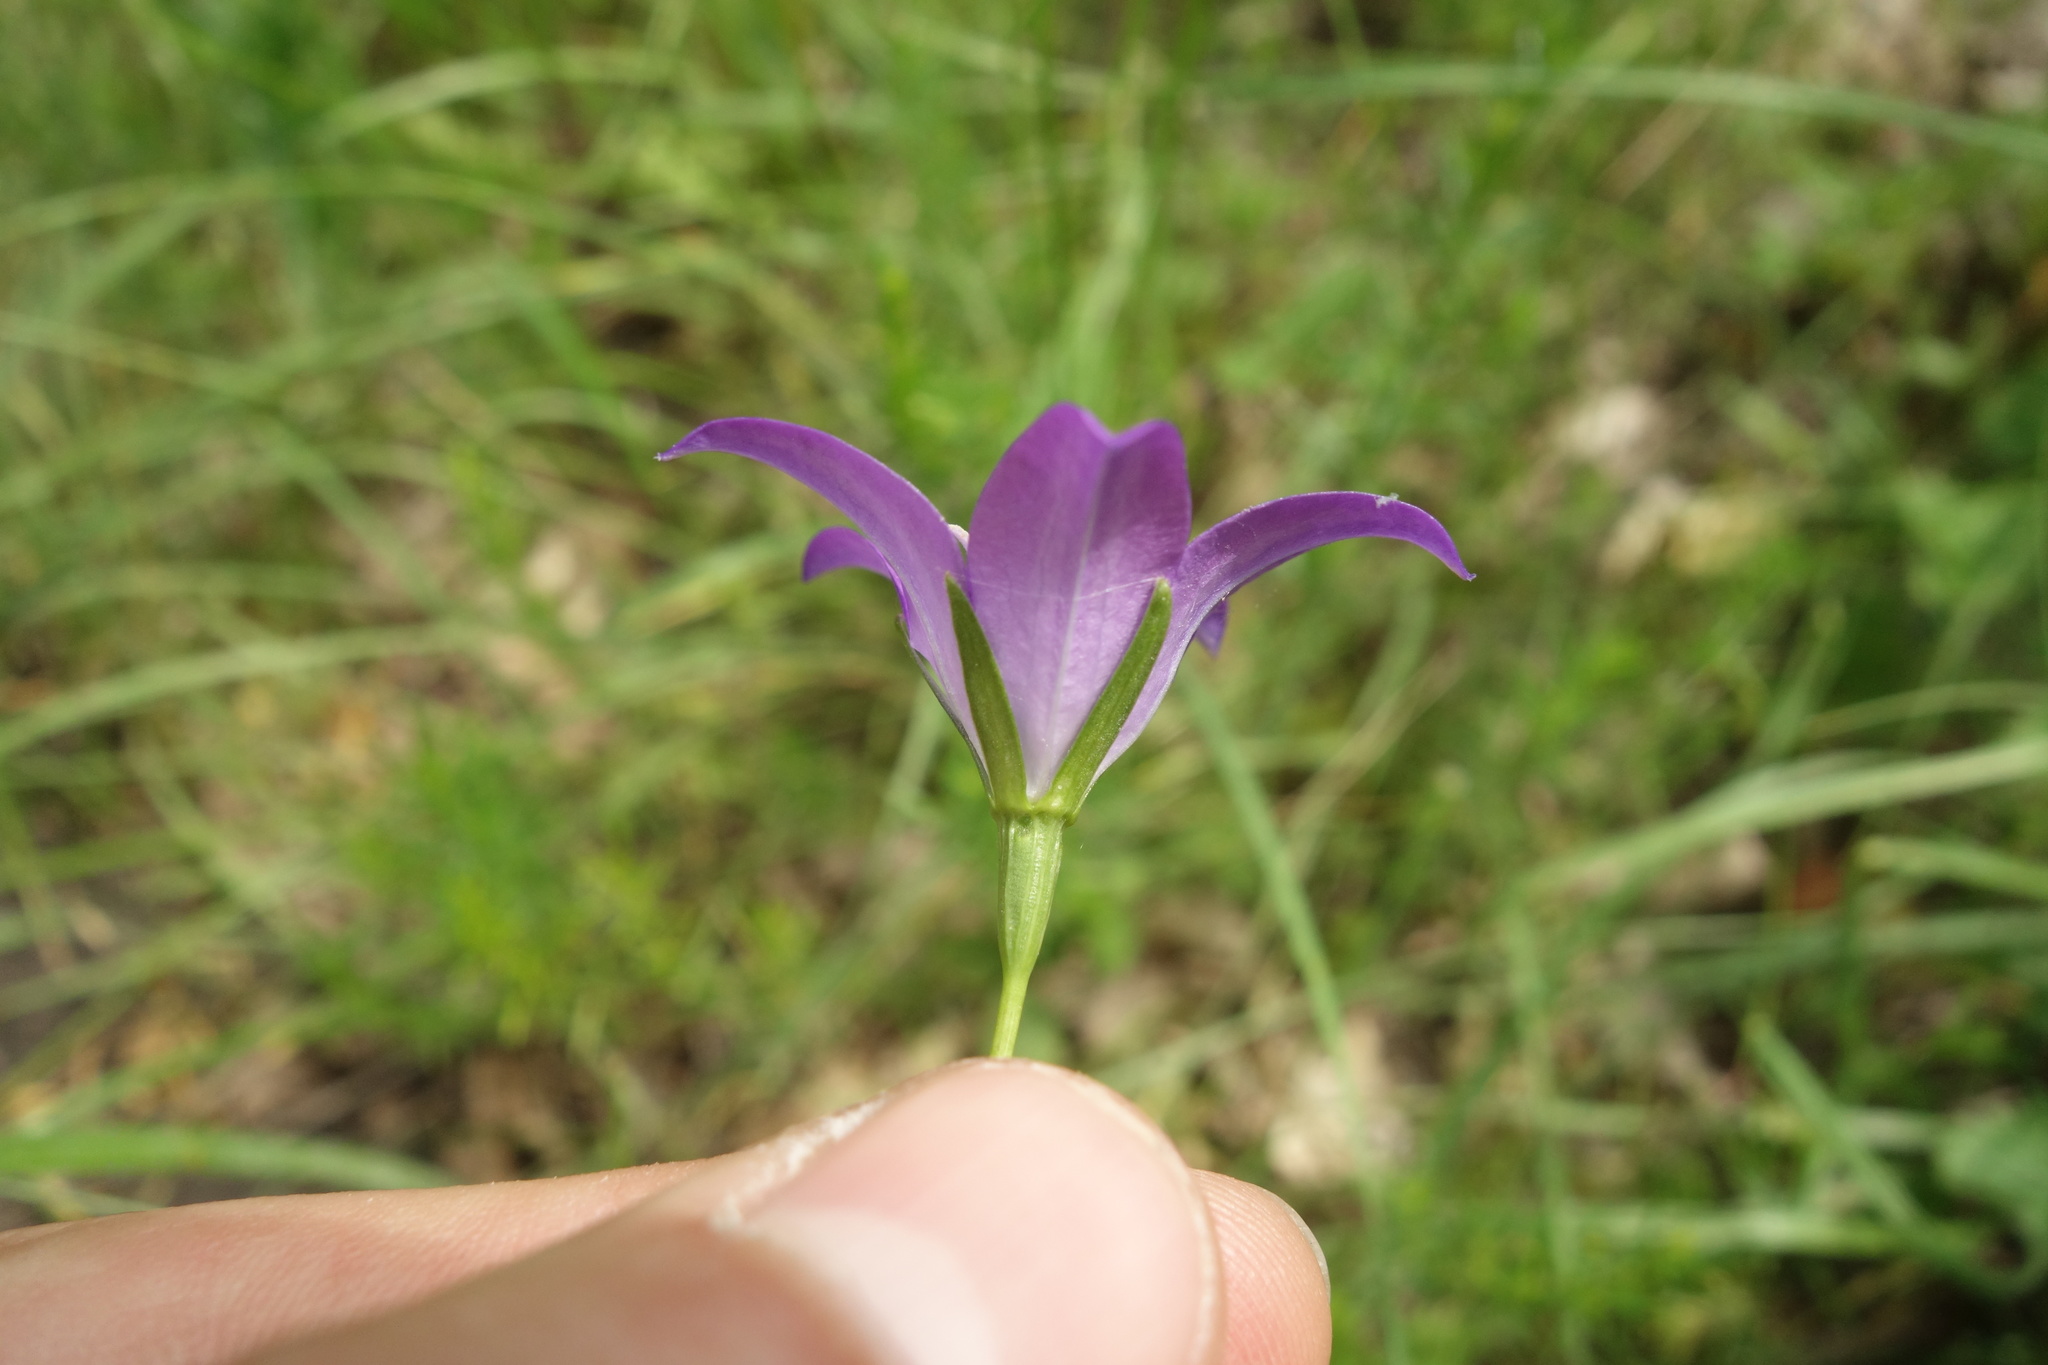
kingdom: Plantae
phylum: Tracheophyta
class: Magnoliopsida
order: Asterales
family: Campanulaceae
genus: Campanula
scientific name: Campanula stevenii
